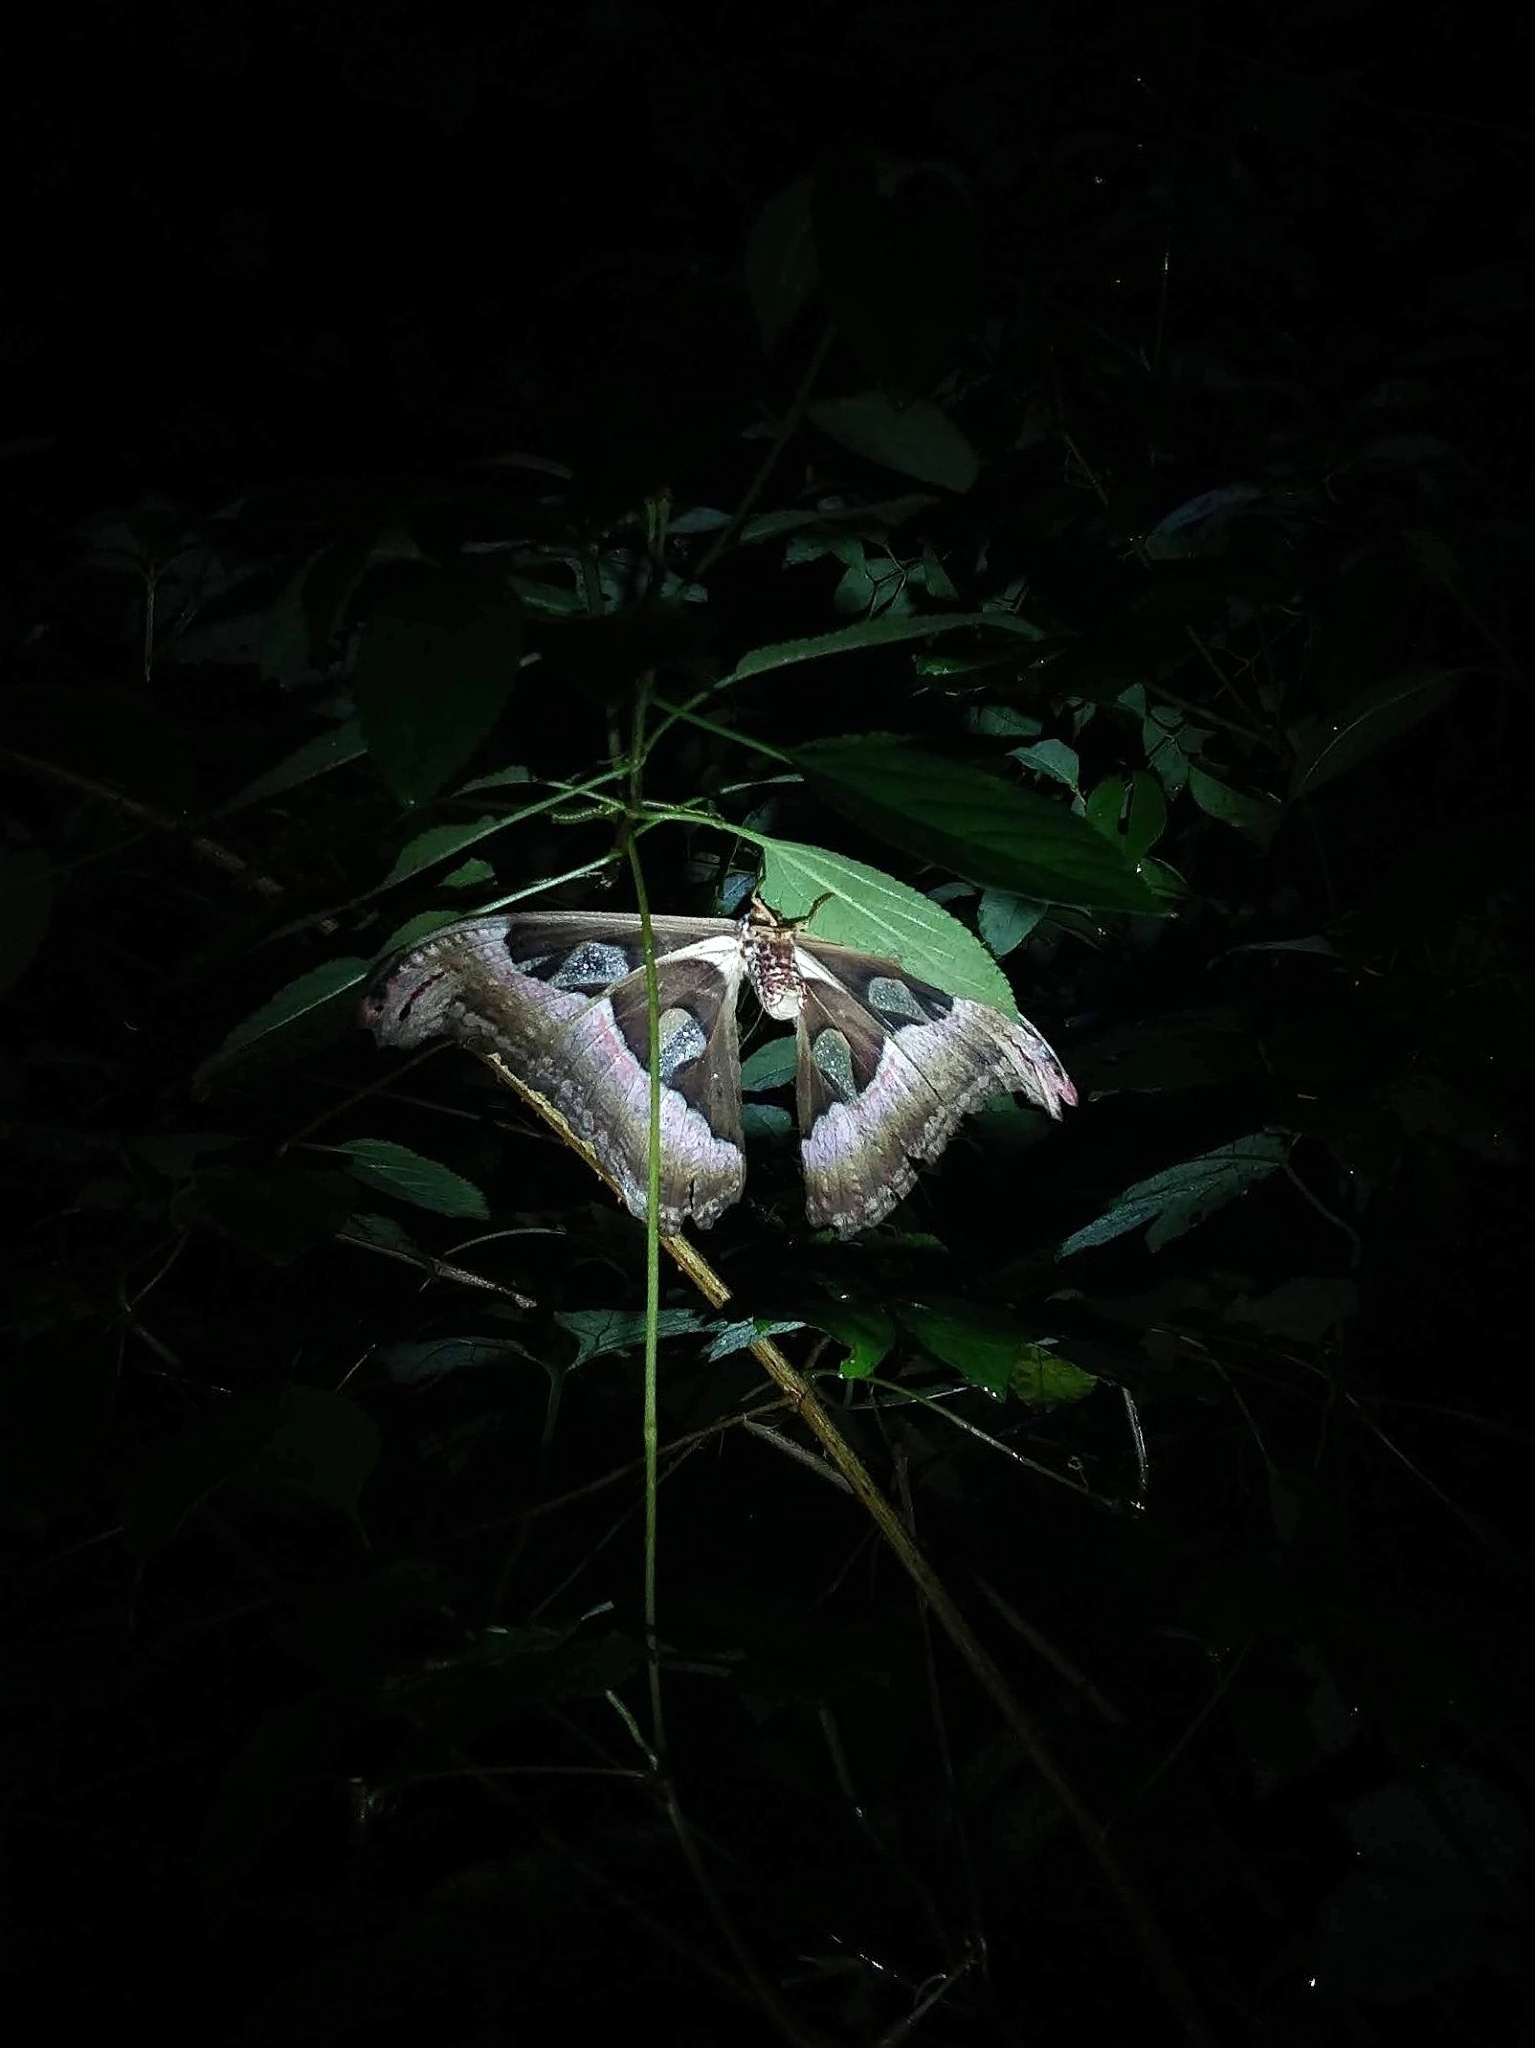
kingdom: Animalia
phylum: Arthropoda
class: Insecta
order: Lepidoptera
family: Saturniidae
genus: Attacus
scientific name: Attacus taprobanis
